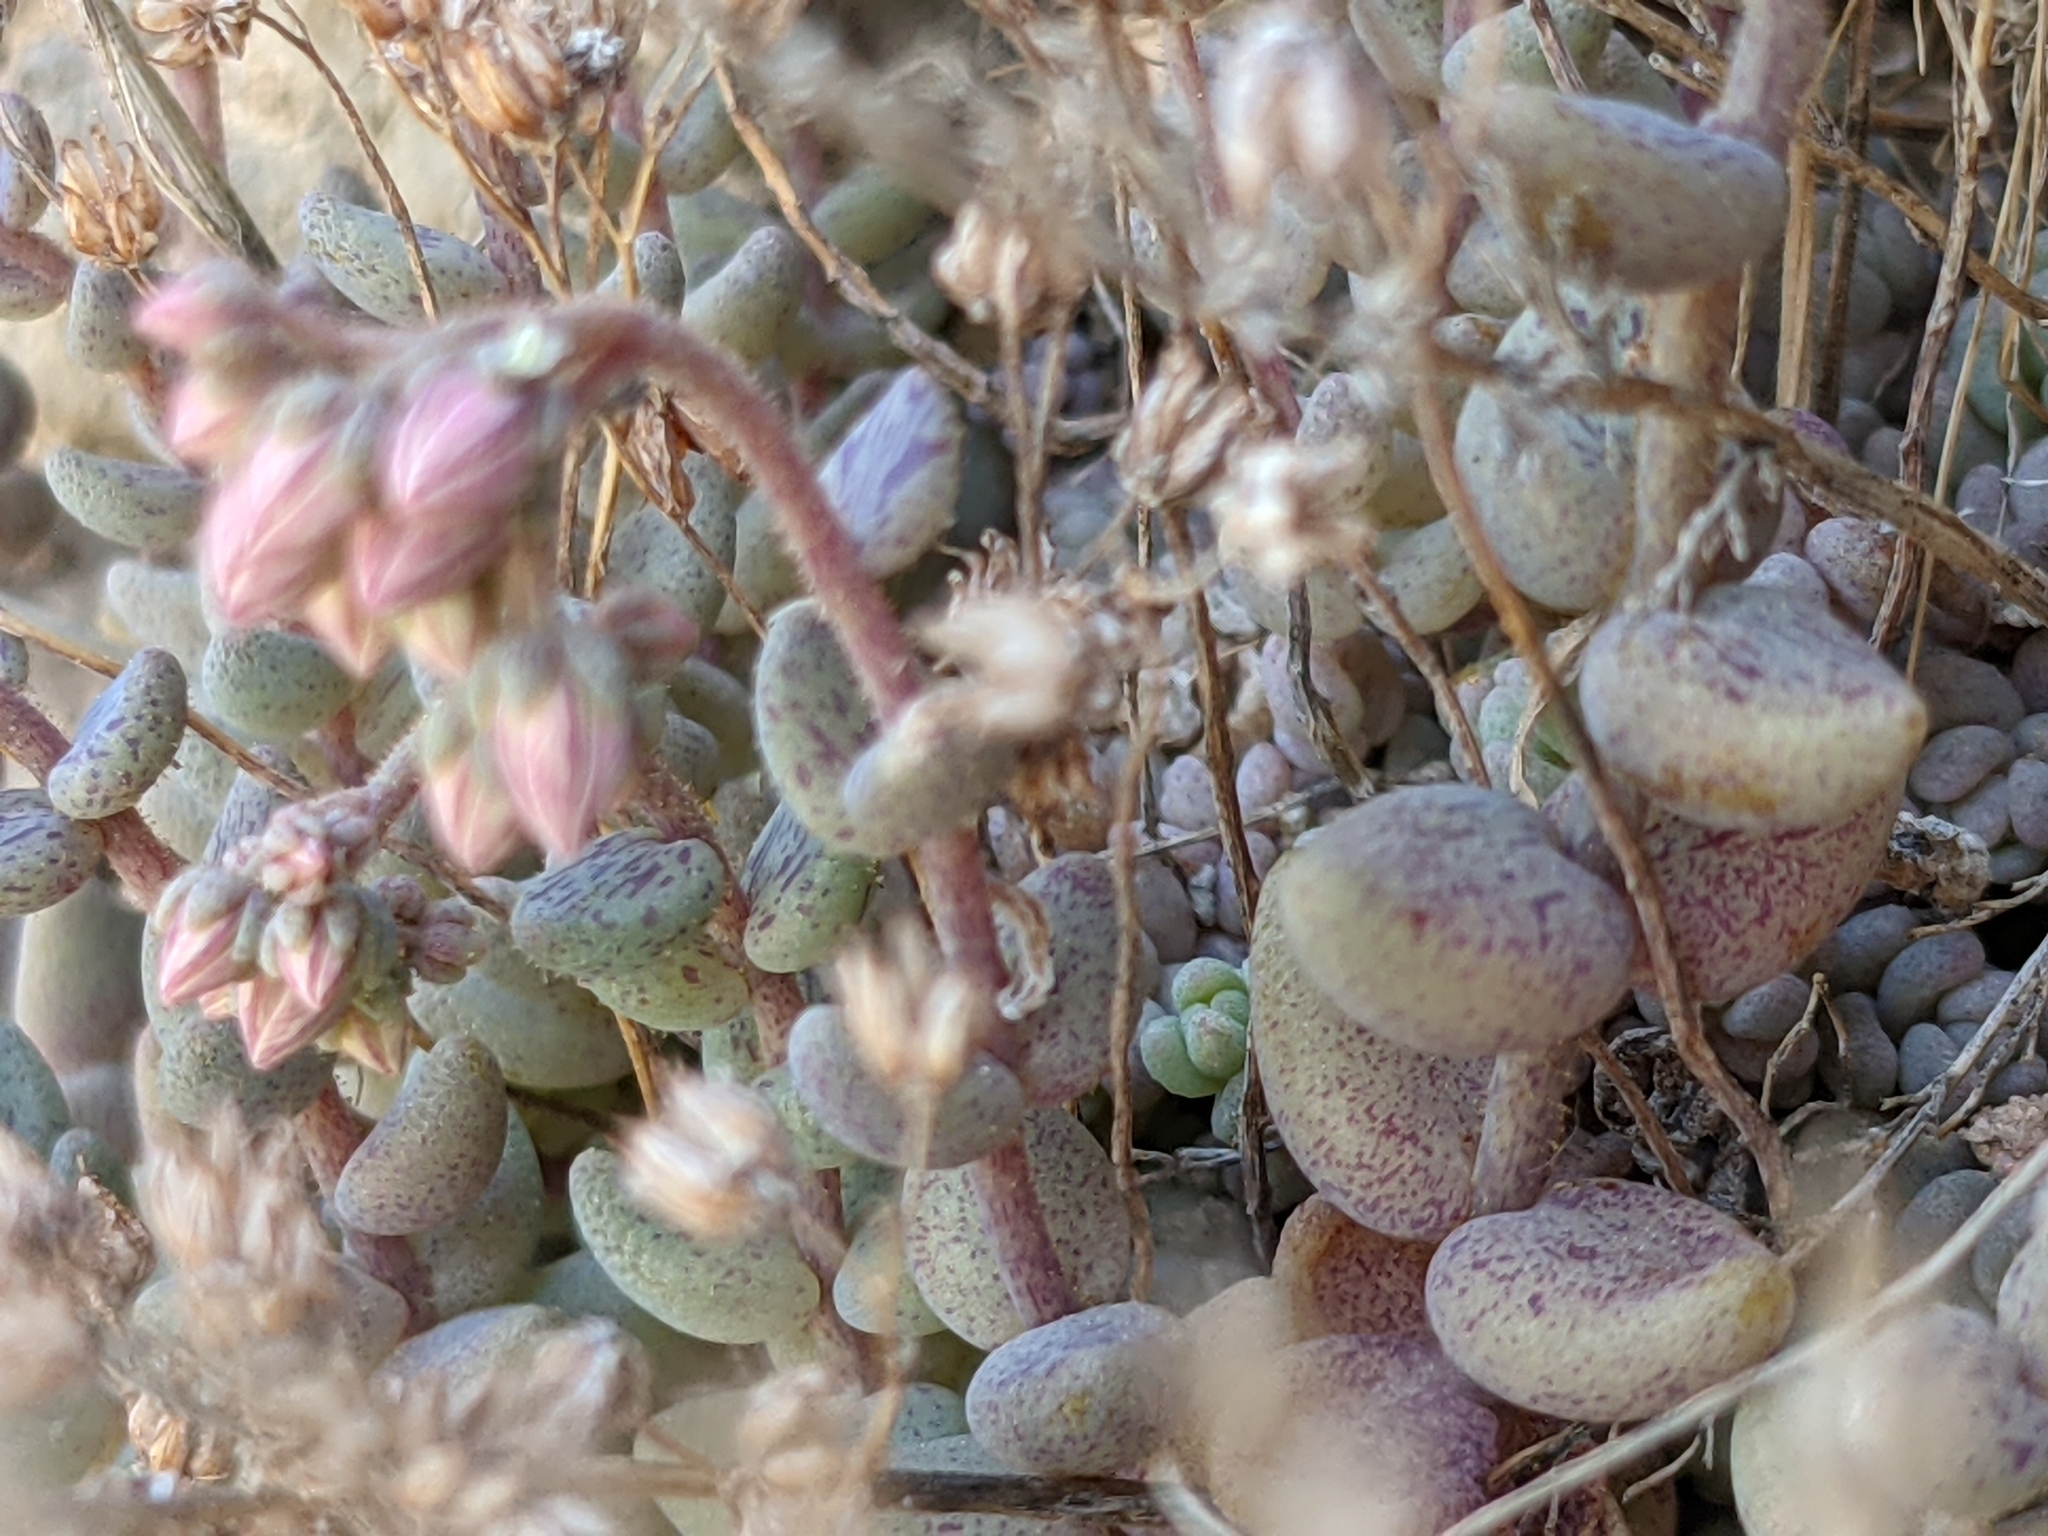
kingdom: Plantae
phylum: Tracheophyta
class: Magnoliopsida
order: Saxifragales
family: Crassulaceae
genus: Sedum
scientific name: Sedum dasyphyllum
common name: Thick-leaf stonecrop
